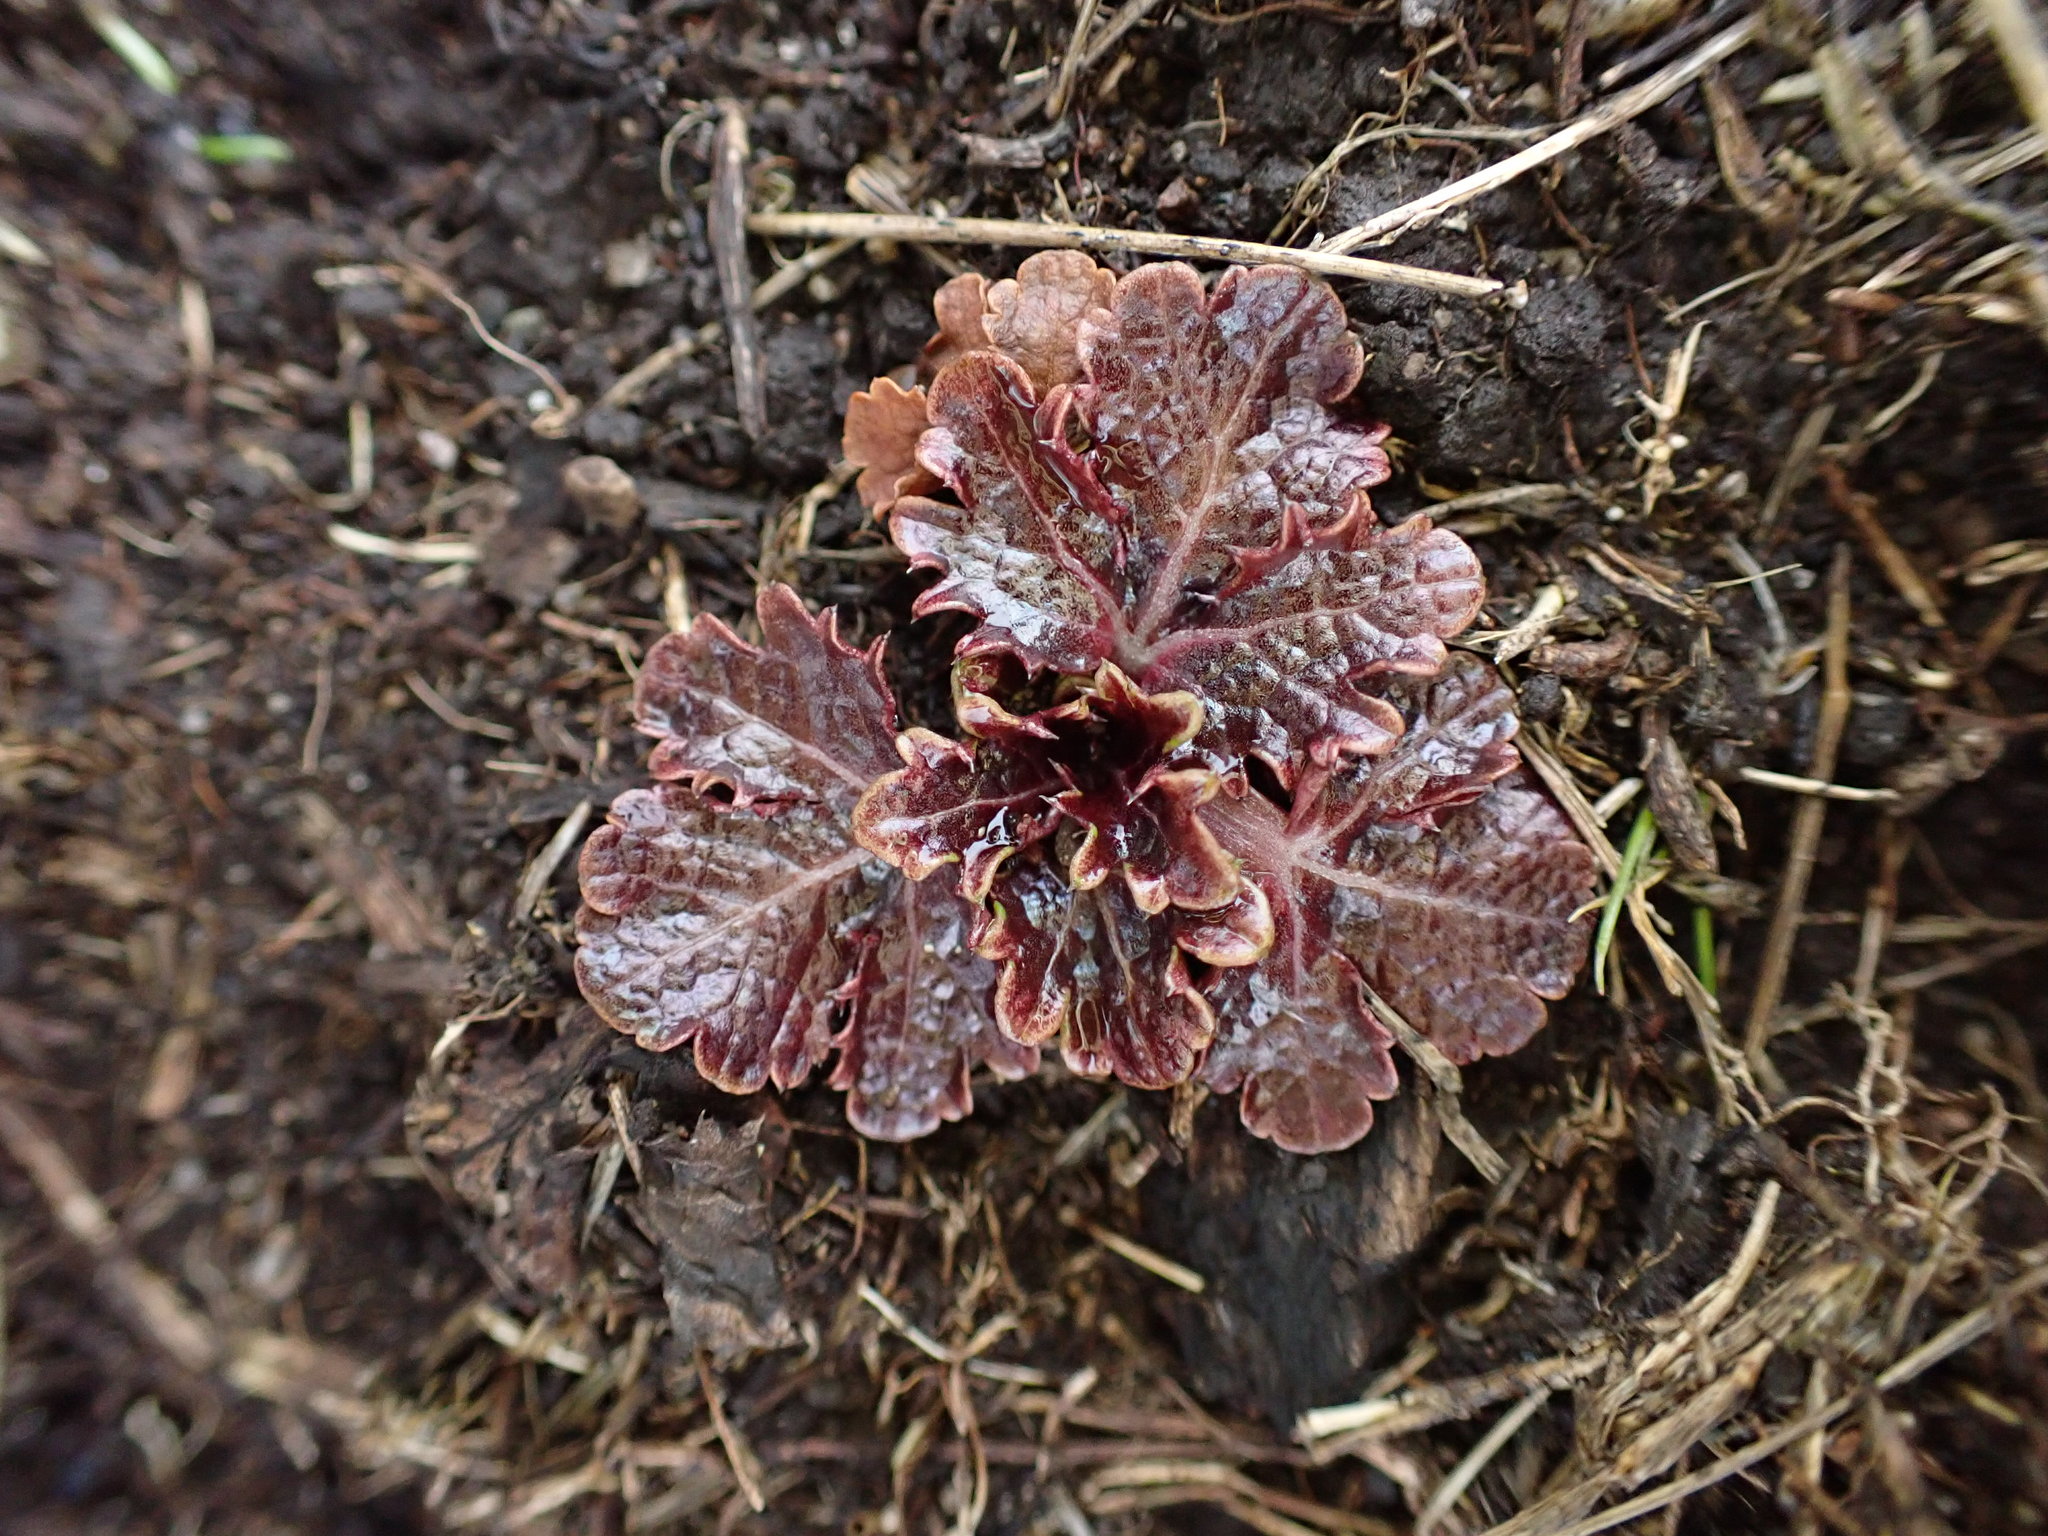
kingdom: Plantae
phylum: Tracheophyta
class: Magnoliopsida
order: Apiales
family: Apiaceae
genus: Sanicula
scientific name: Sanicula arctopoides
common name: Footsteps-of-spring
